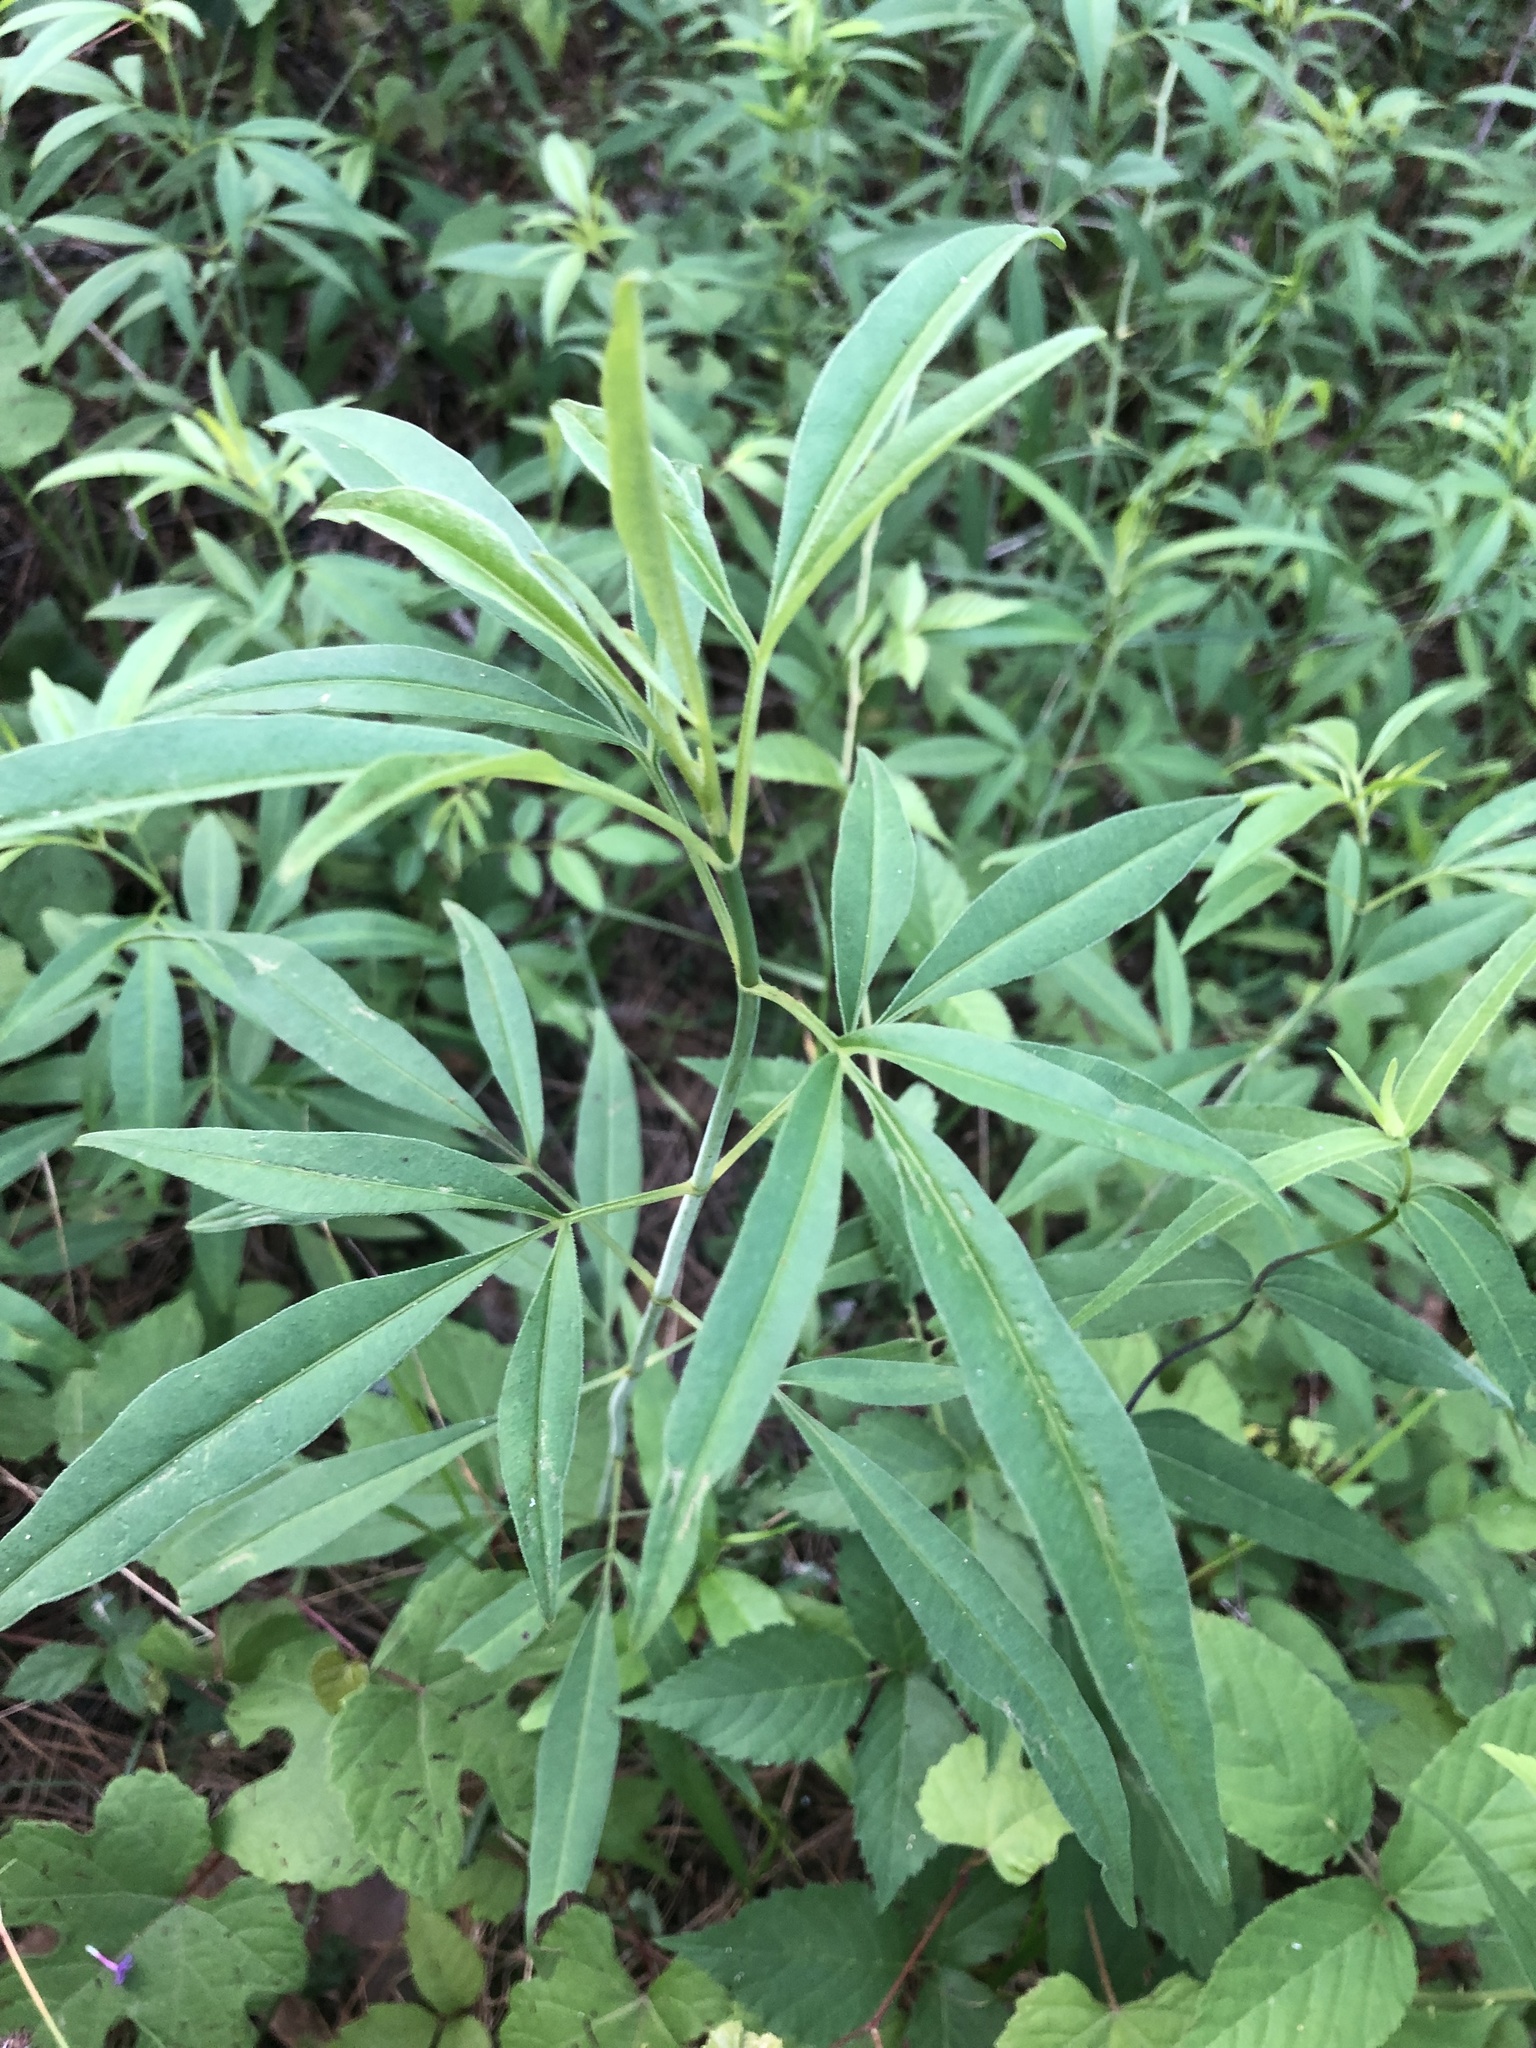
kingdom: Plantae
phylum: Tracheophyta
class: Magnoliopsida
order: Asterales
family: Asteraceae
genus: Coreopsis
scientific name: Coreopsis tripteris
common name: Tall coreopsis
